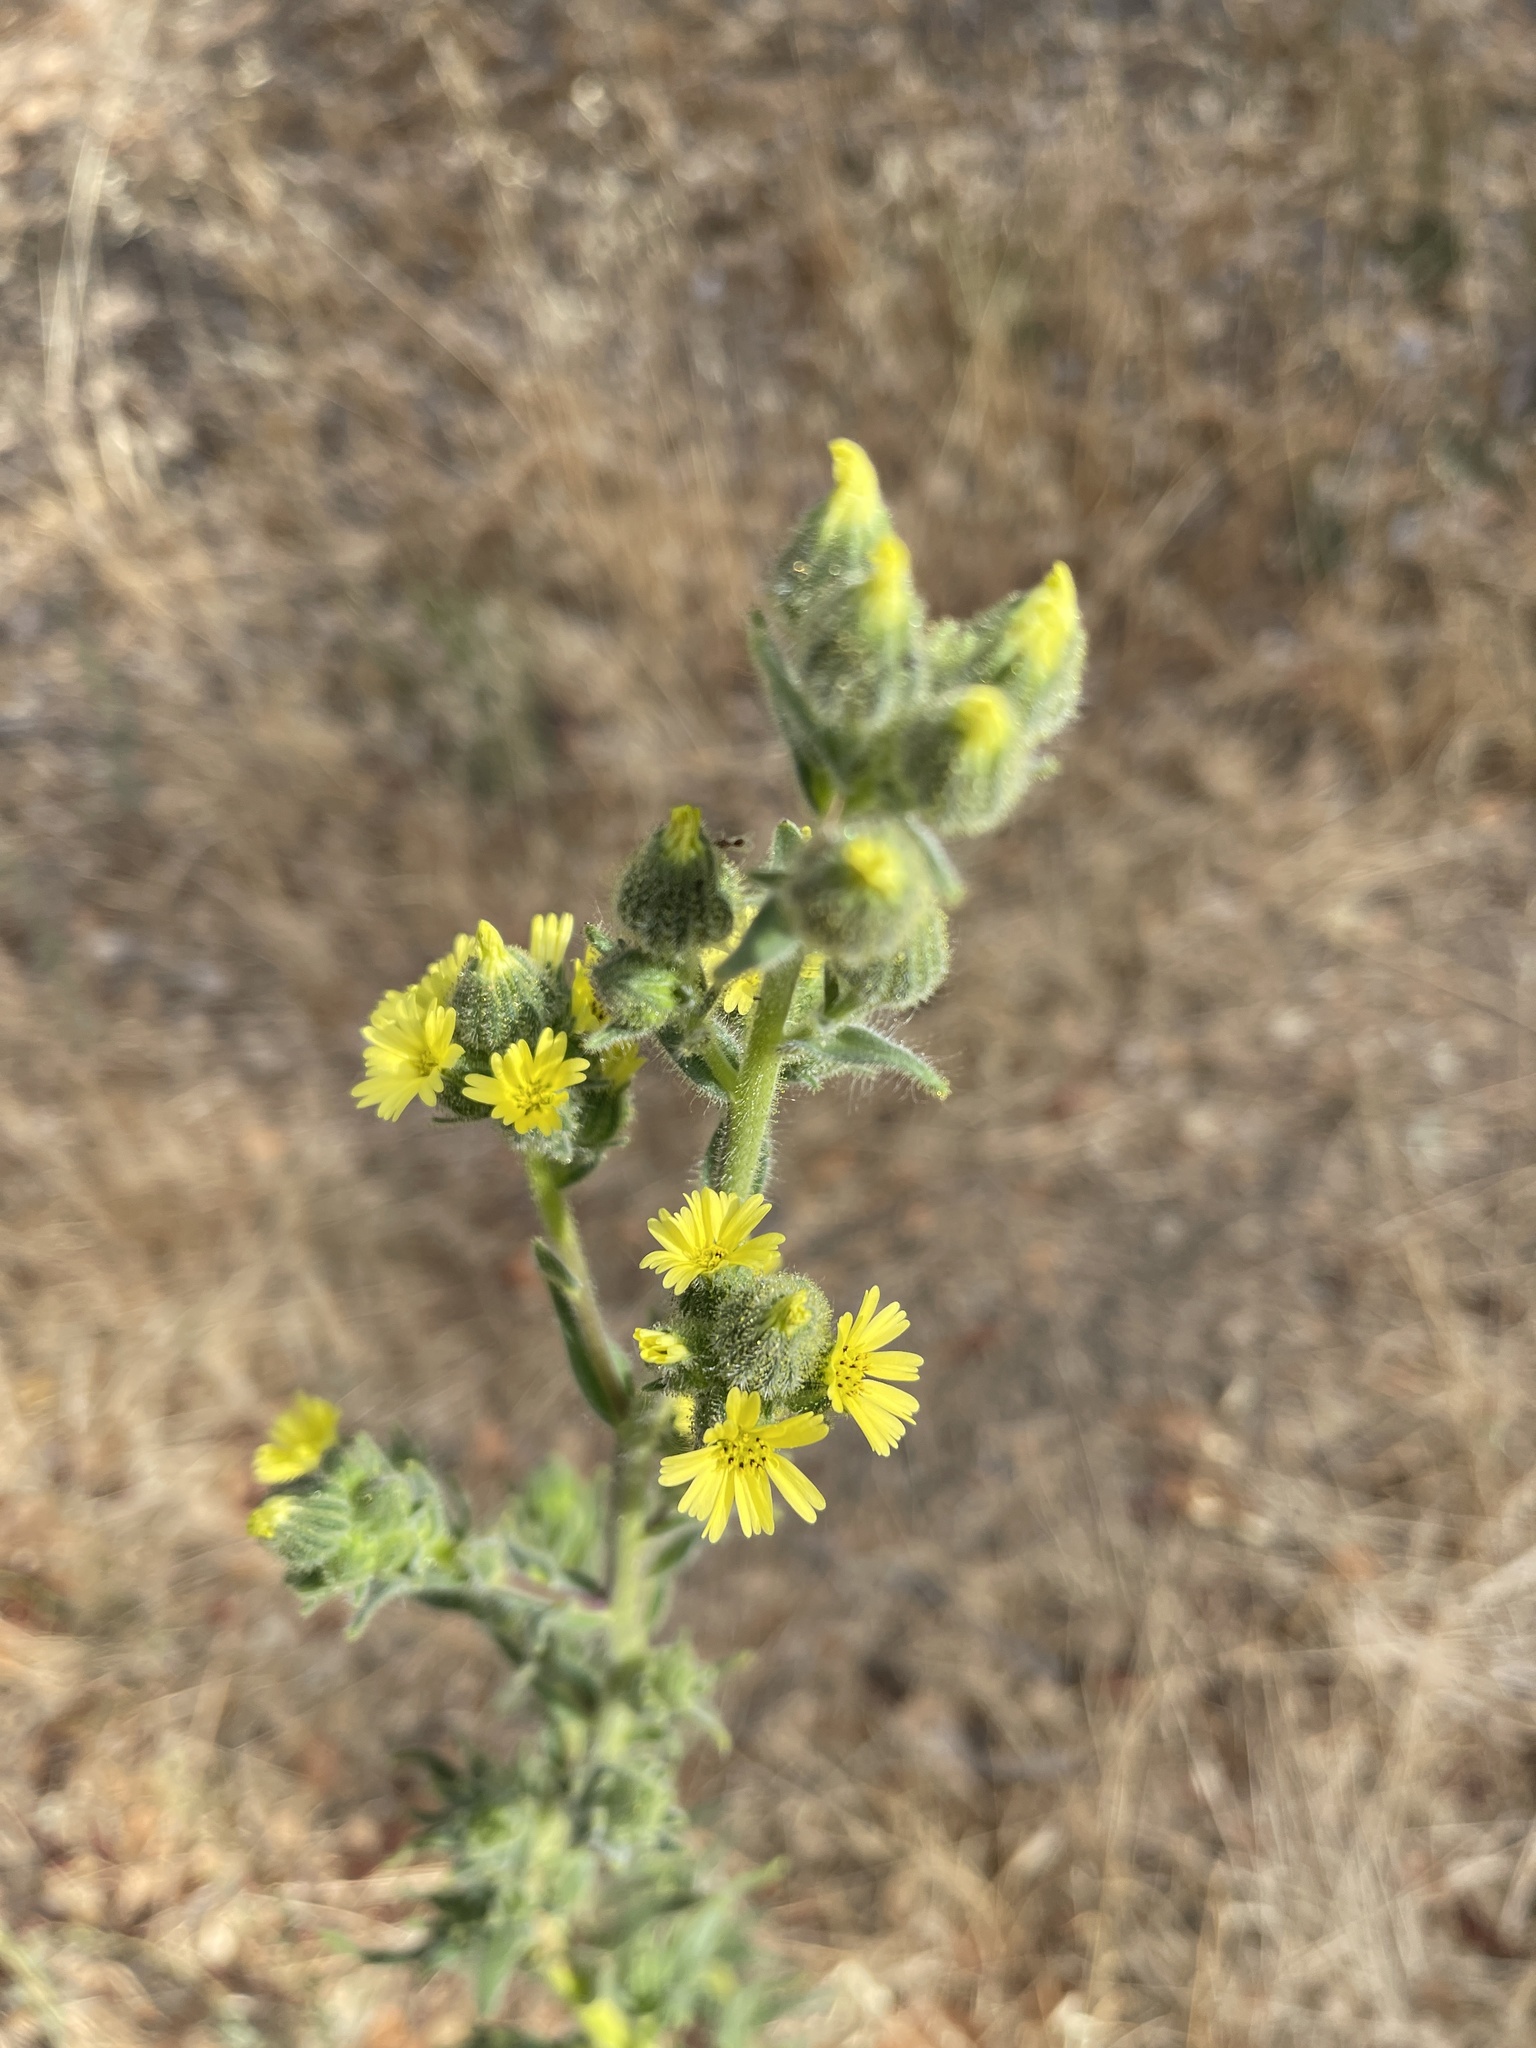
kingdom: Plantae
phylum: Tracheophyta
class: Magnoliopsida
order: Asterales
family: Asteraceae
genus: Madia
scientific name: Madia sativa
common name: Coast tarweed
